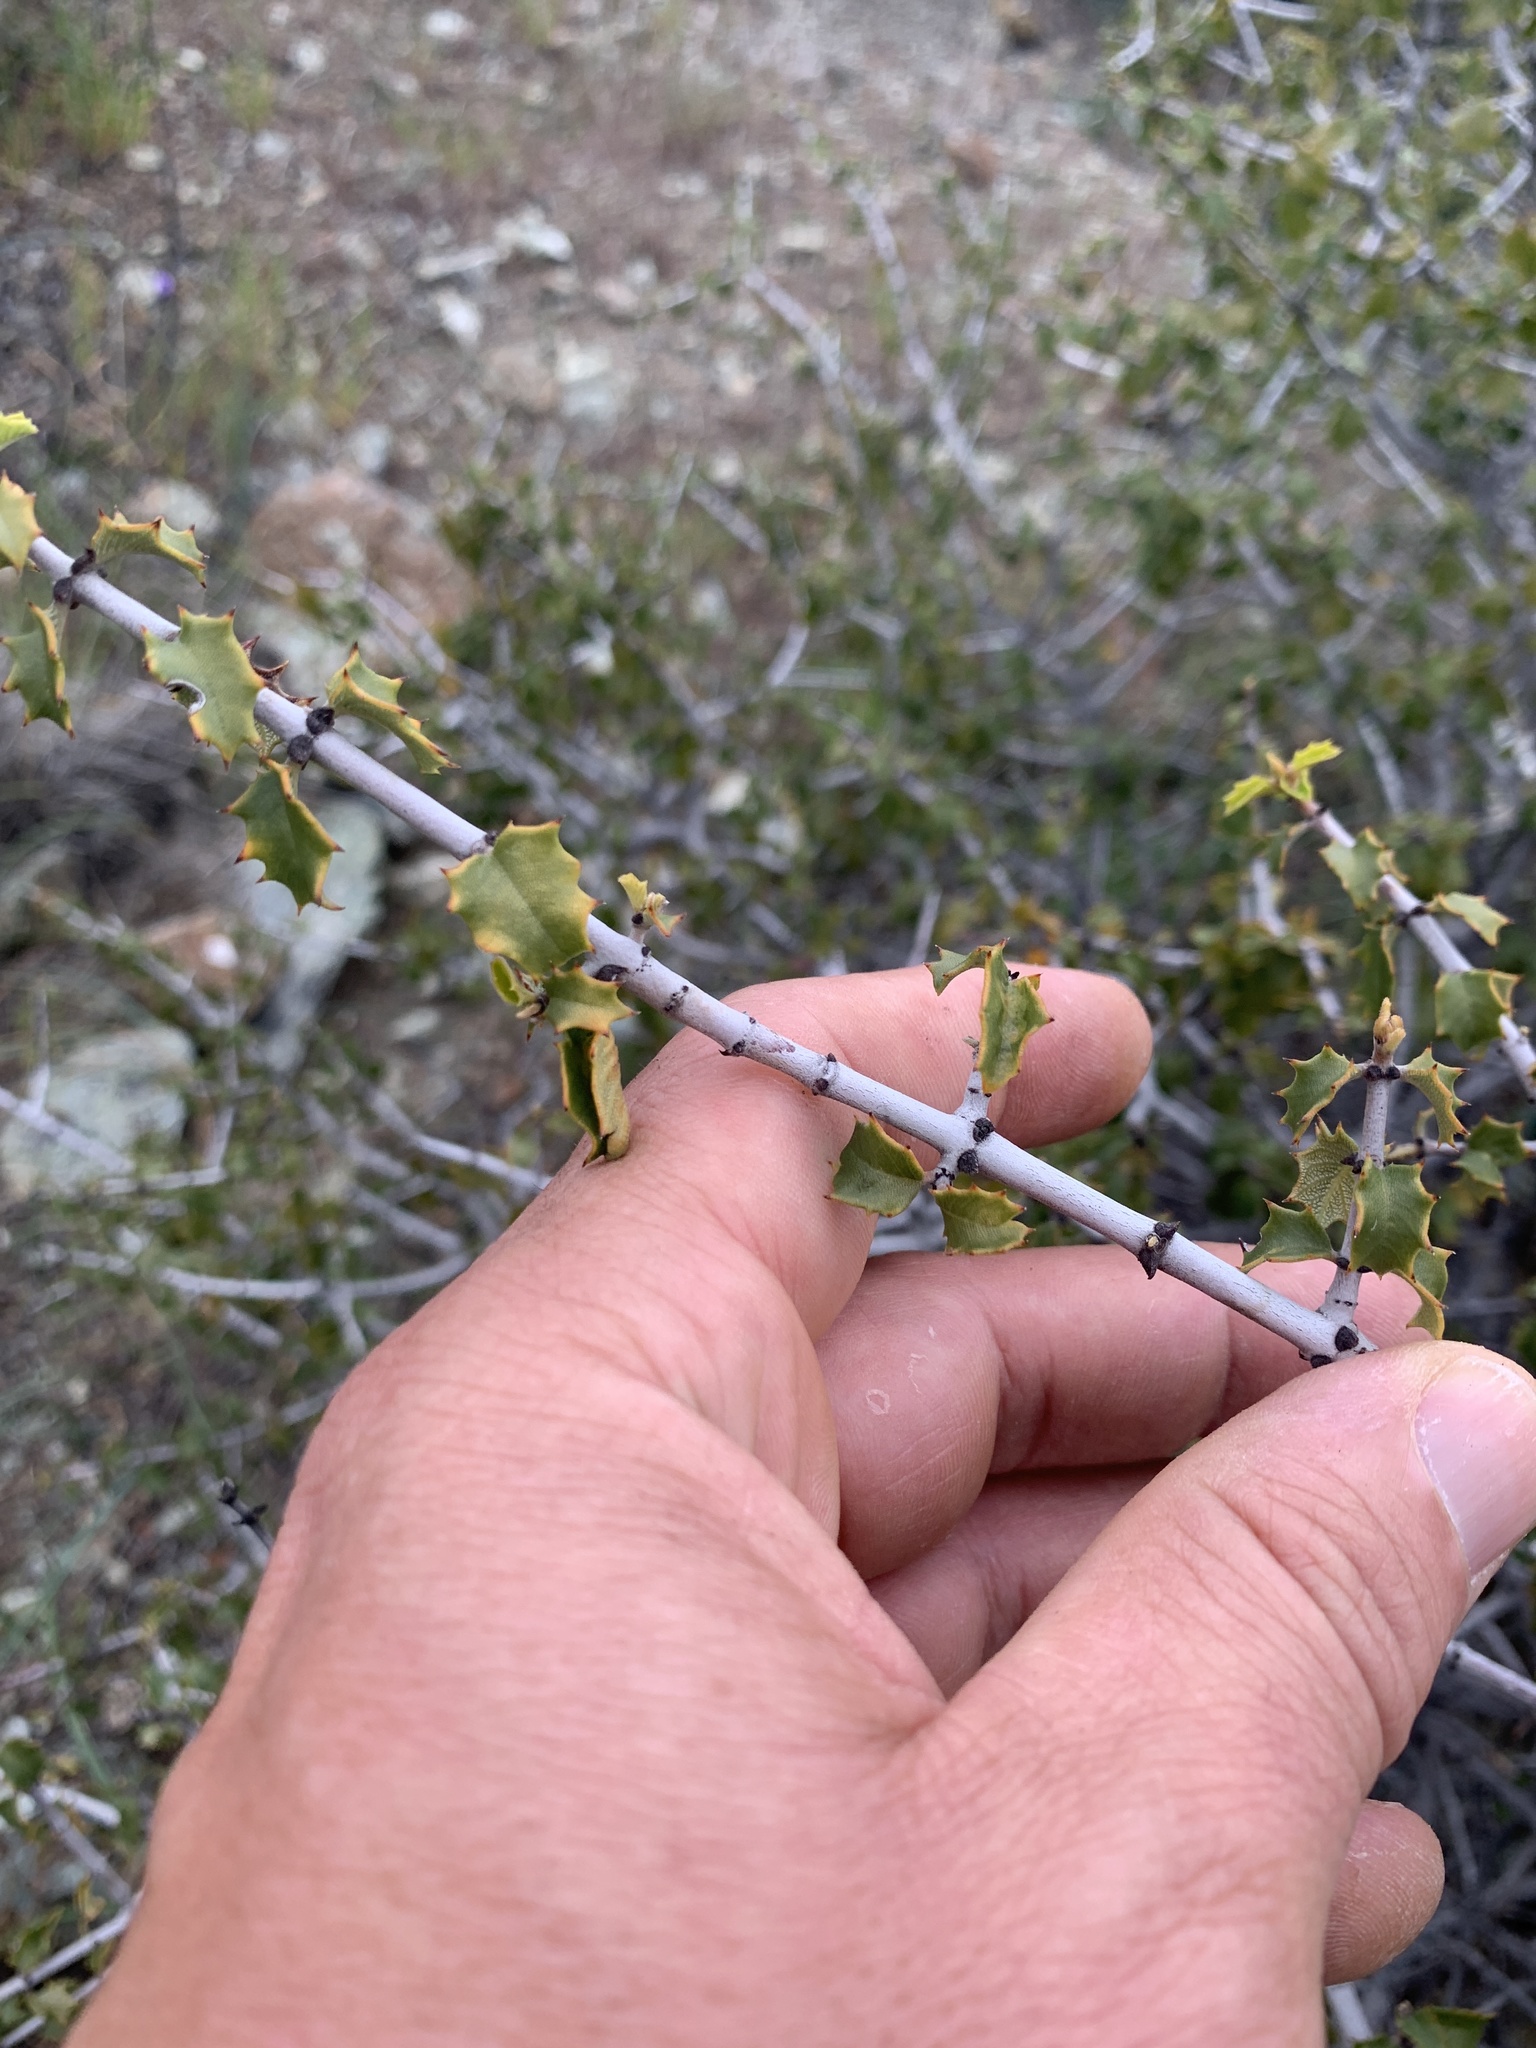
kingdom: Plantae
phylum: Tracheophyta
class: Magnoliopsida
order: Rosales
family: Rhamnaceae
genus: Ceanothus
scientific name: Ceanothus jepsonii
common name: Muskbrush
